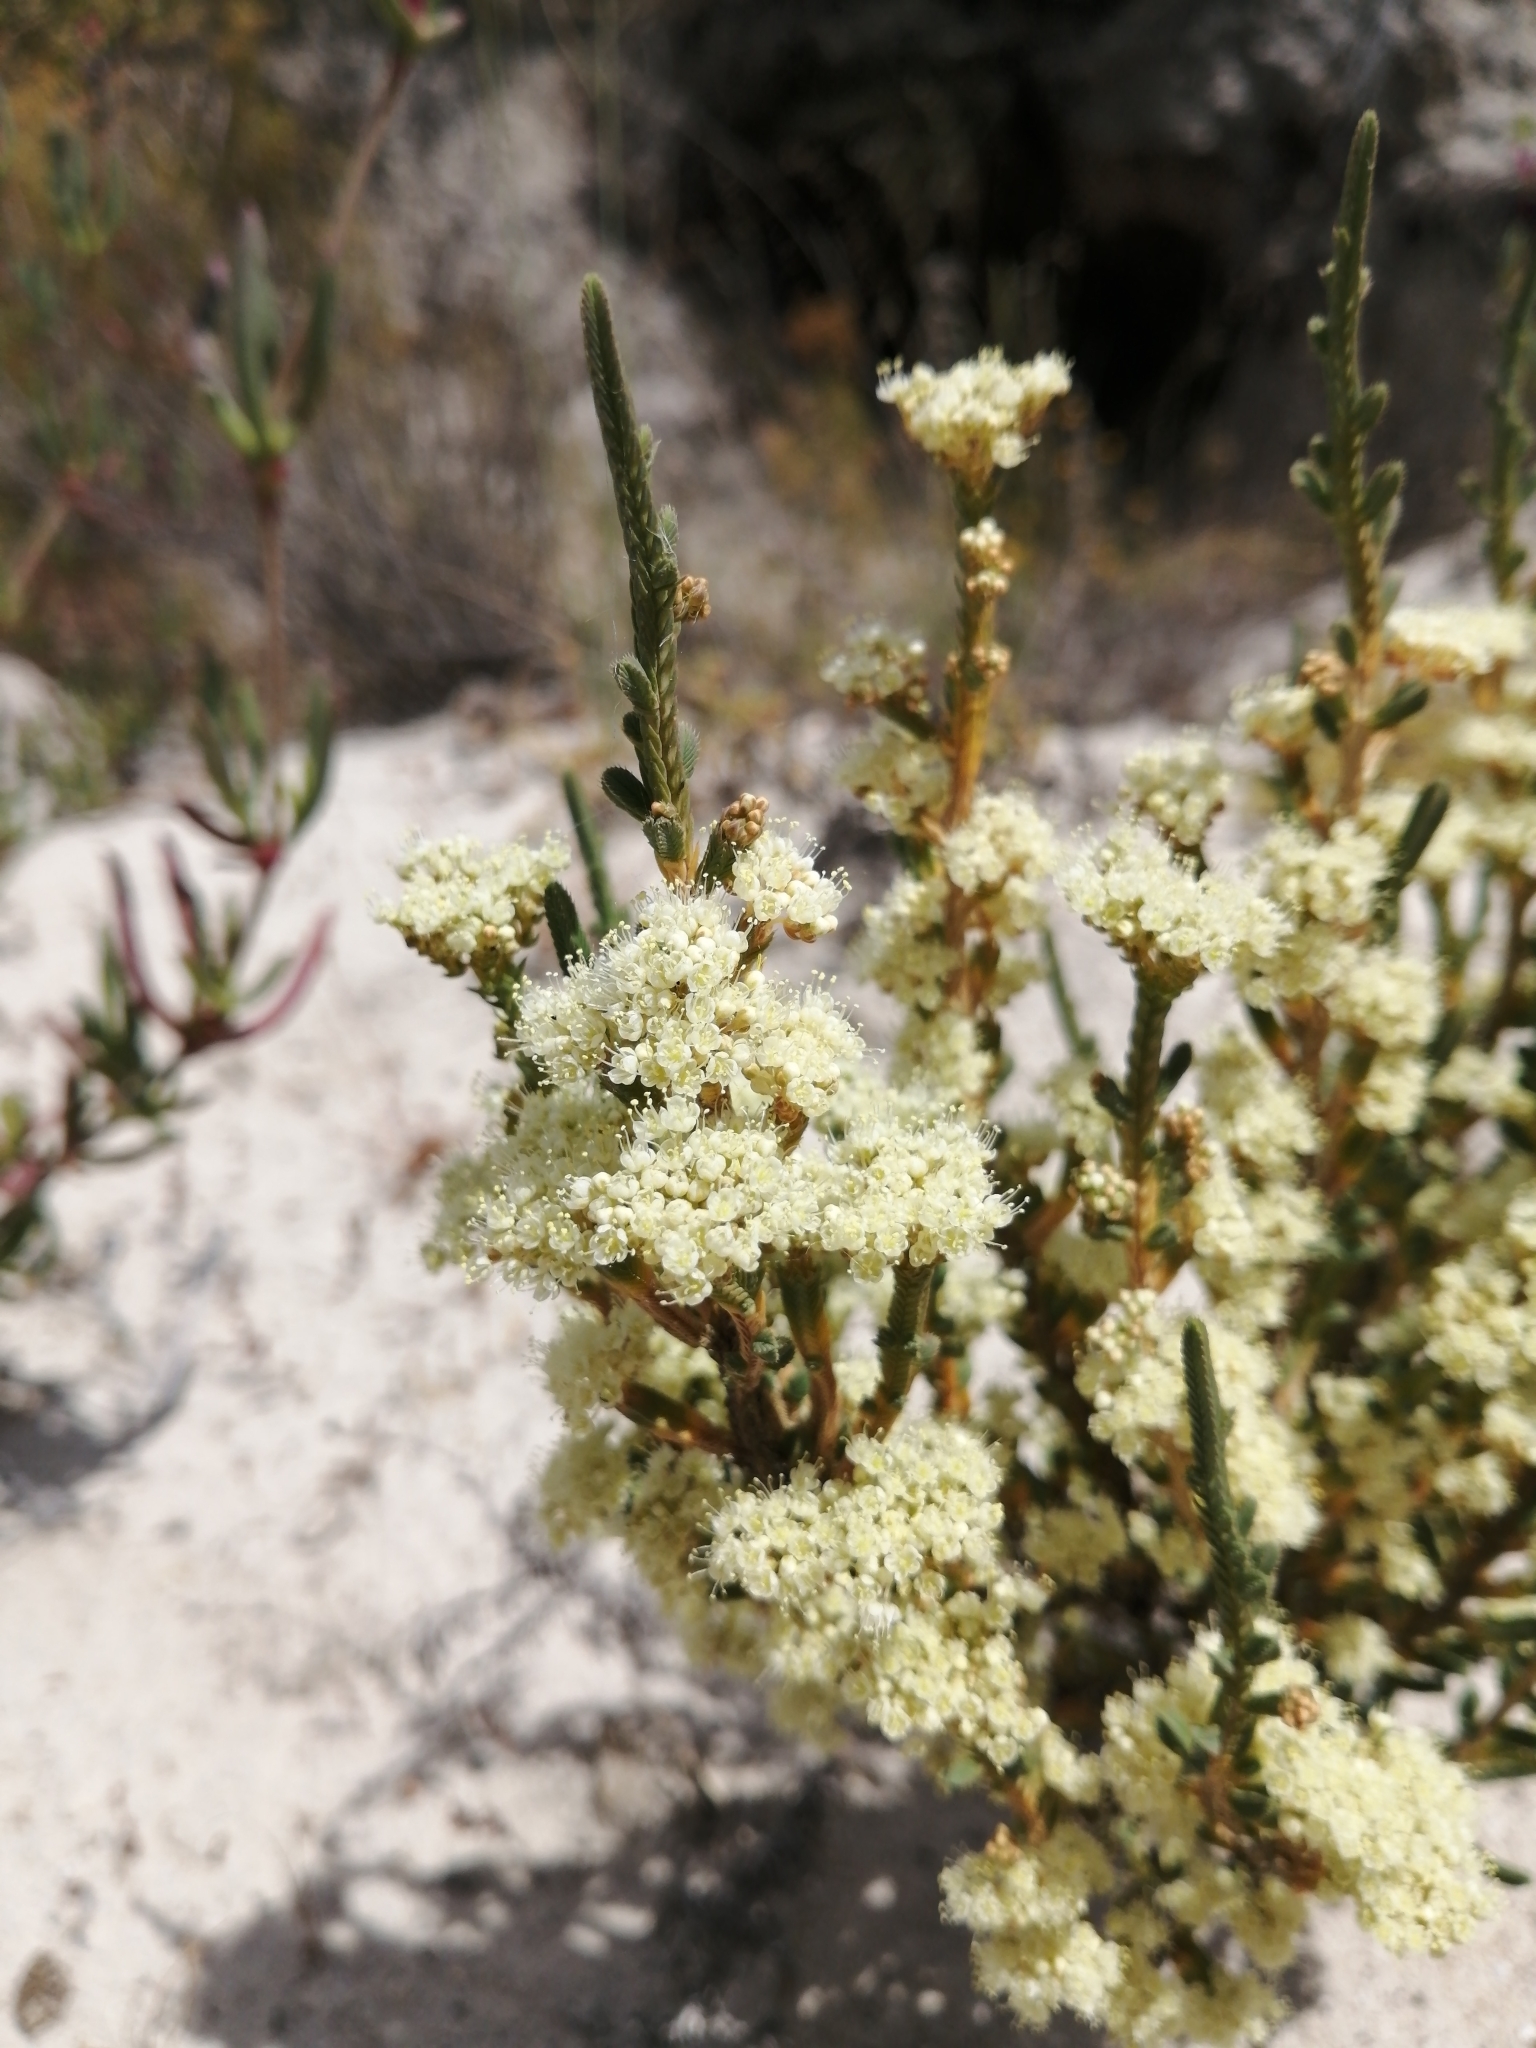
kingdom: Plantae
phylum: Tracheophyta
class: Magnoliopsida
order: Caryophyllales
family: Molluginaceae
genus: Psammotropha
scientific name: Psammotropha anguina
